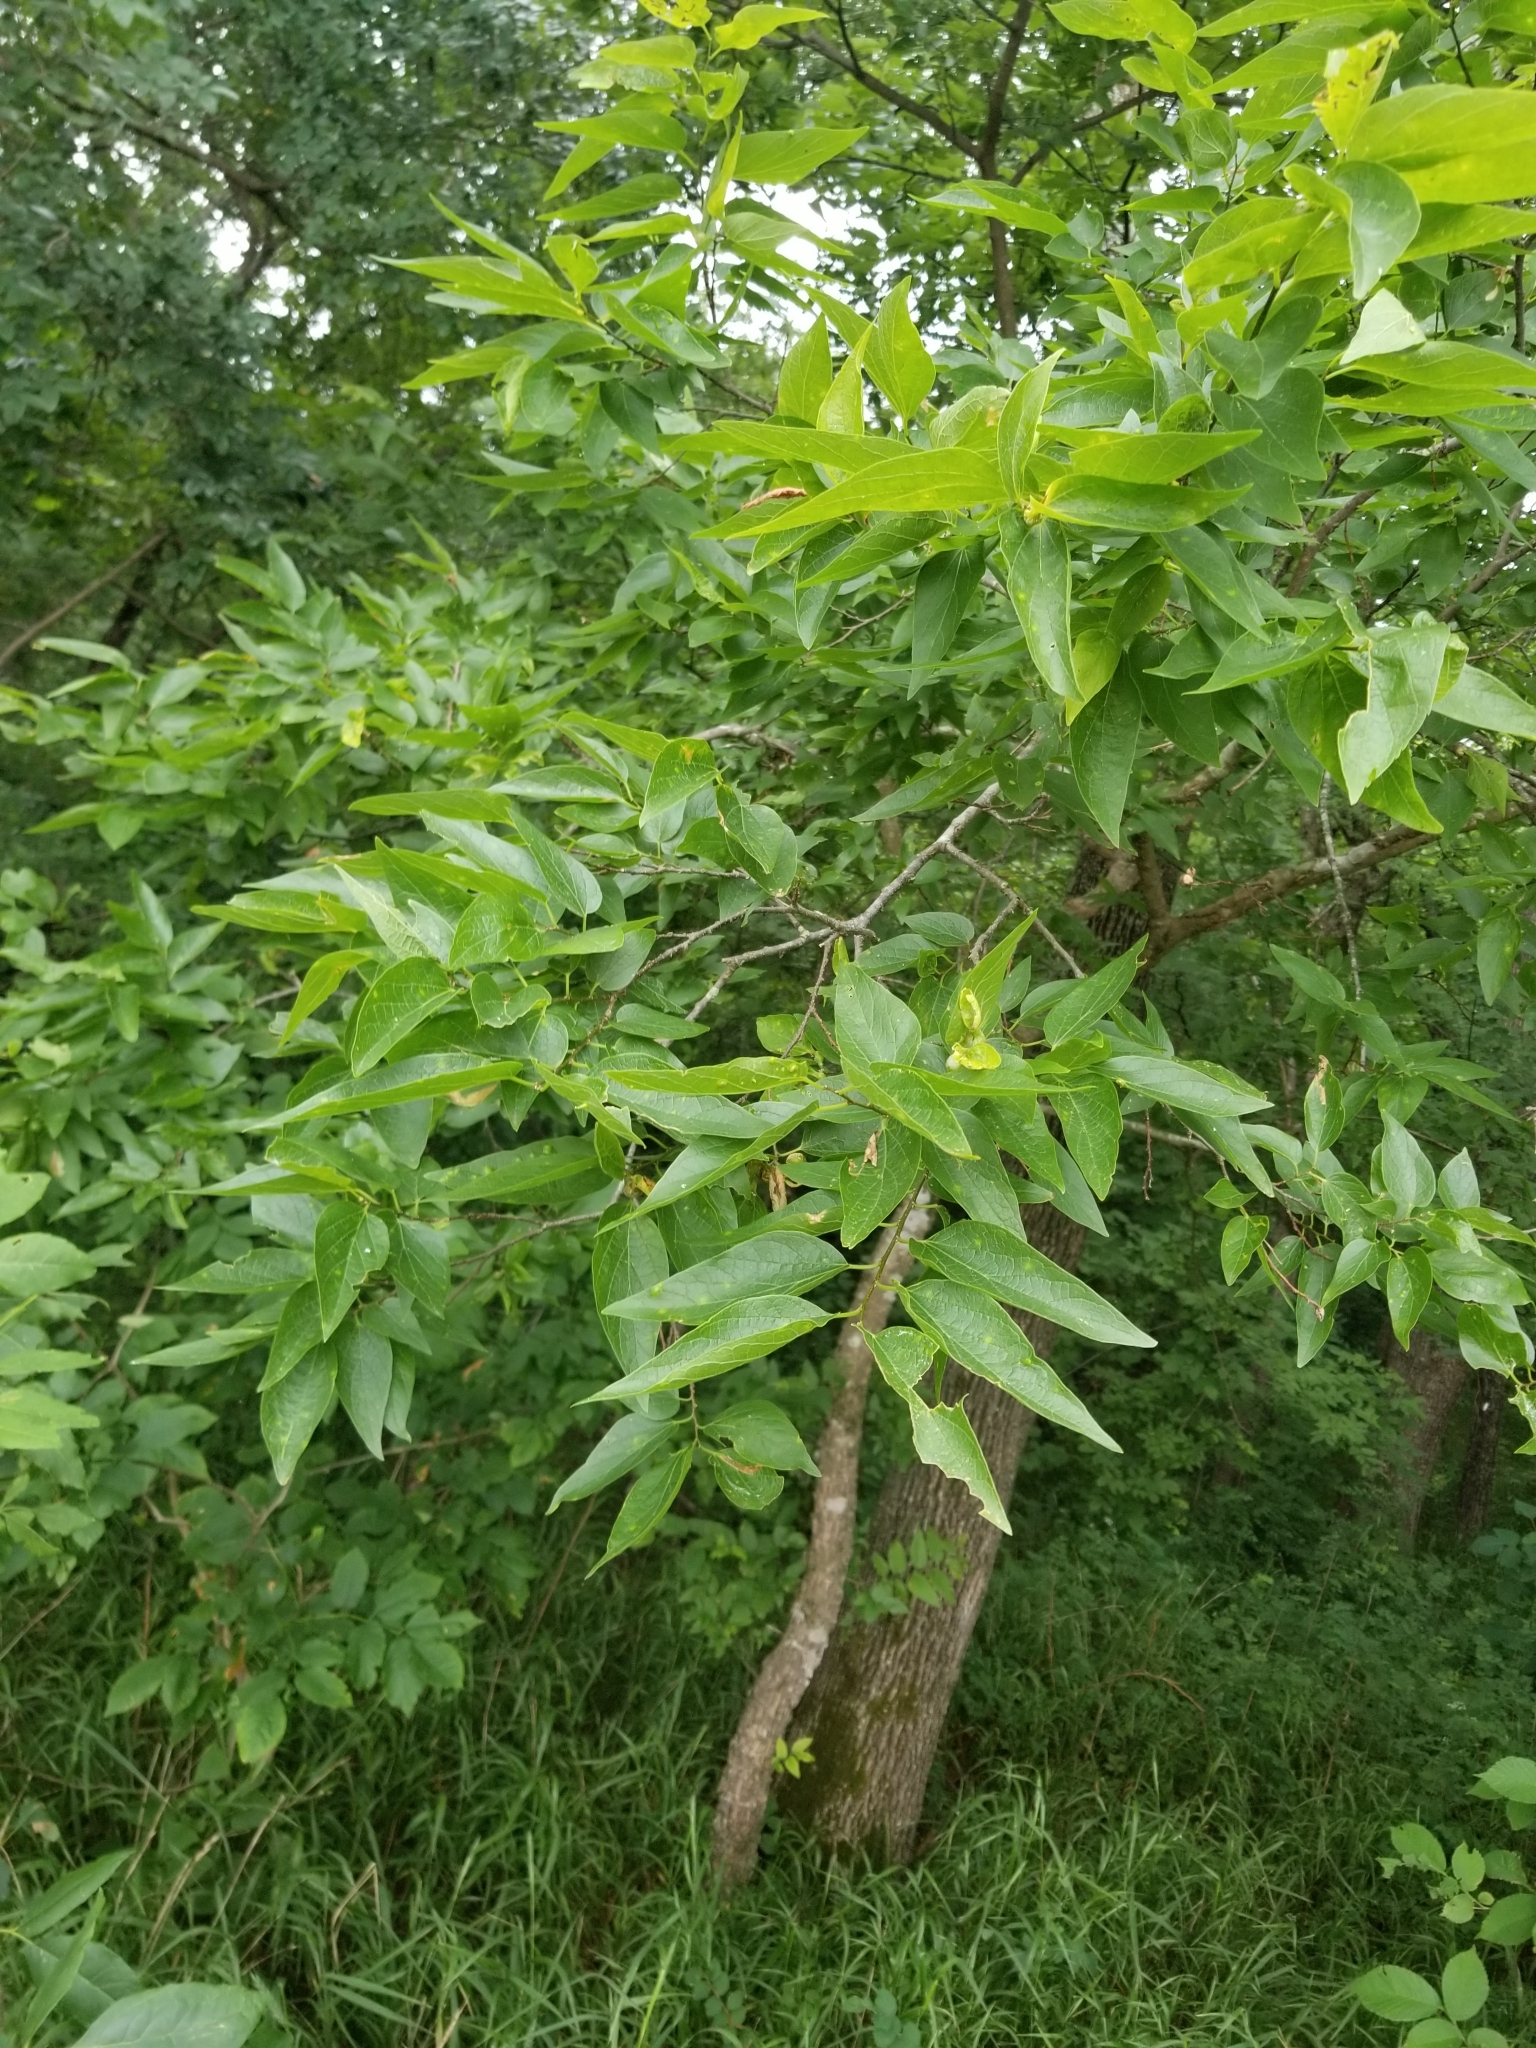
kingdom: Plantae
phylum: Tracheophyta
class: Magnoliopsida
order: Rosales
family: Cannabaceae
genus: Celtis
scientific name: Celtis laevigata
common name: Sugarberry
